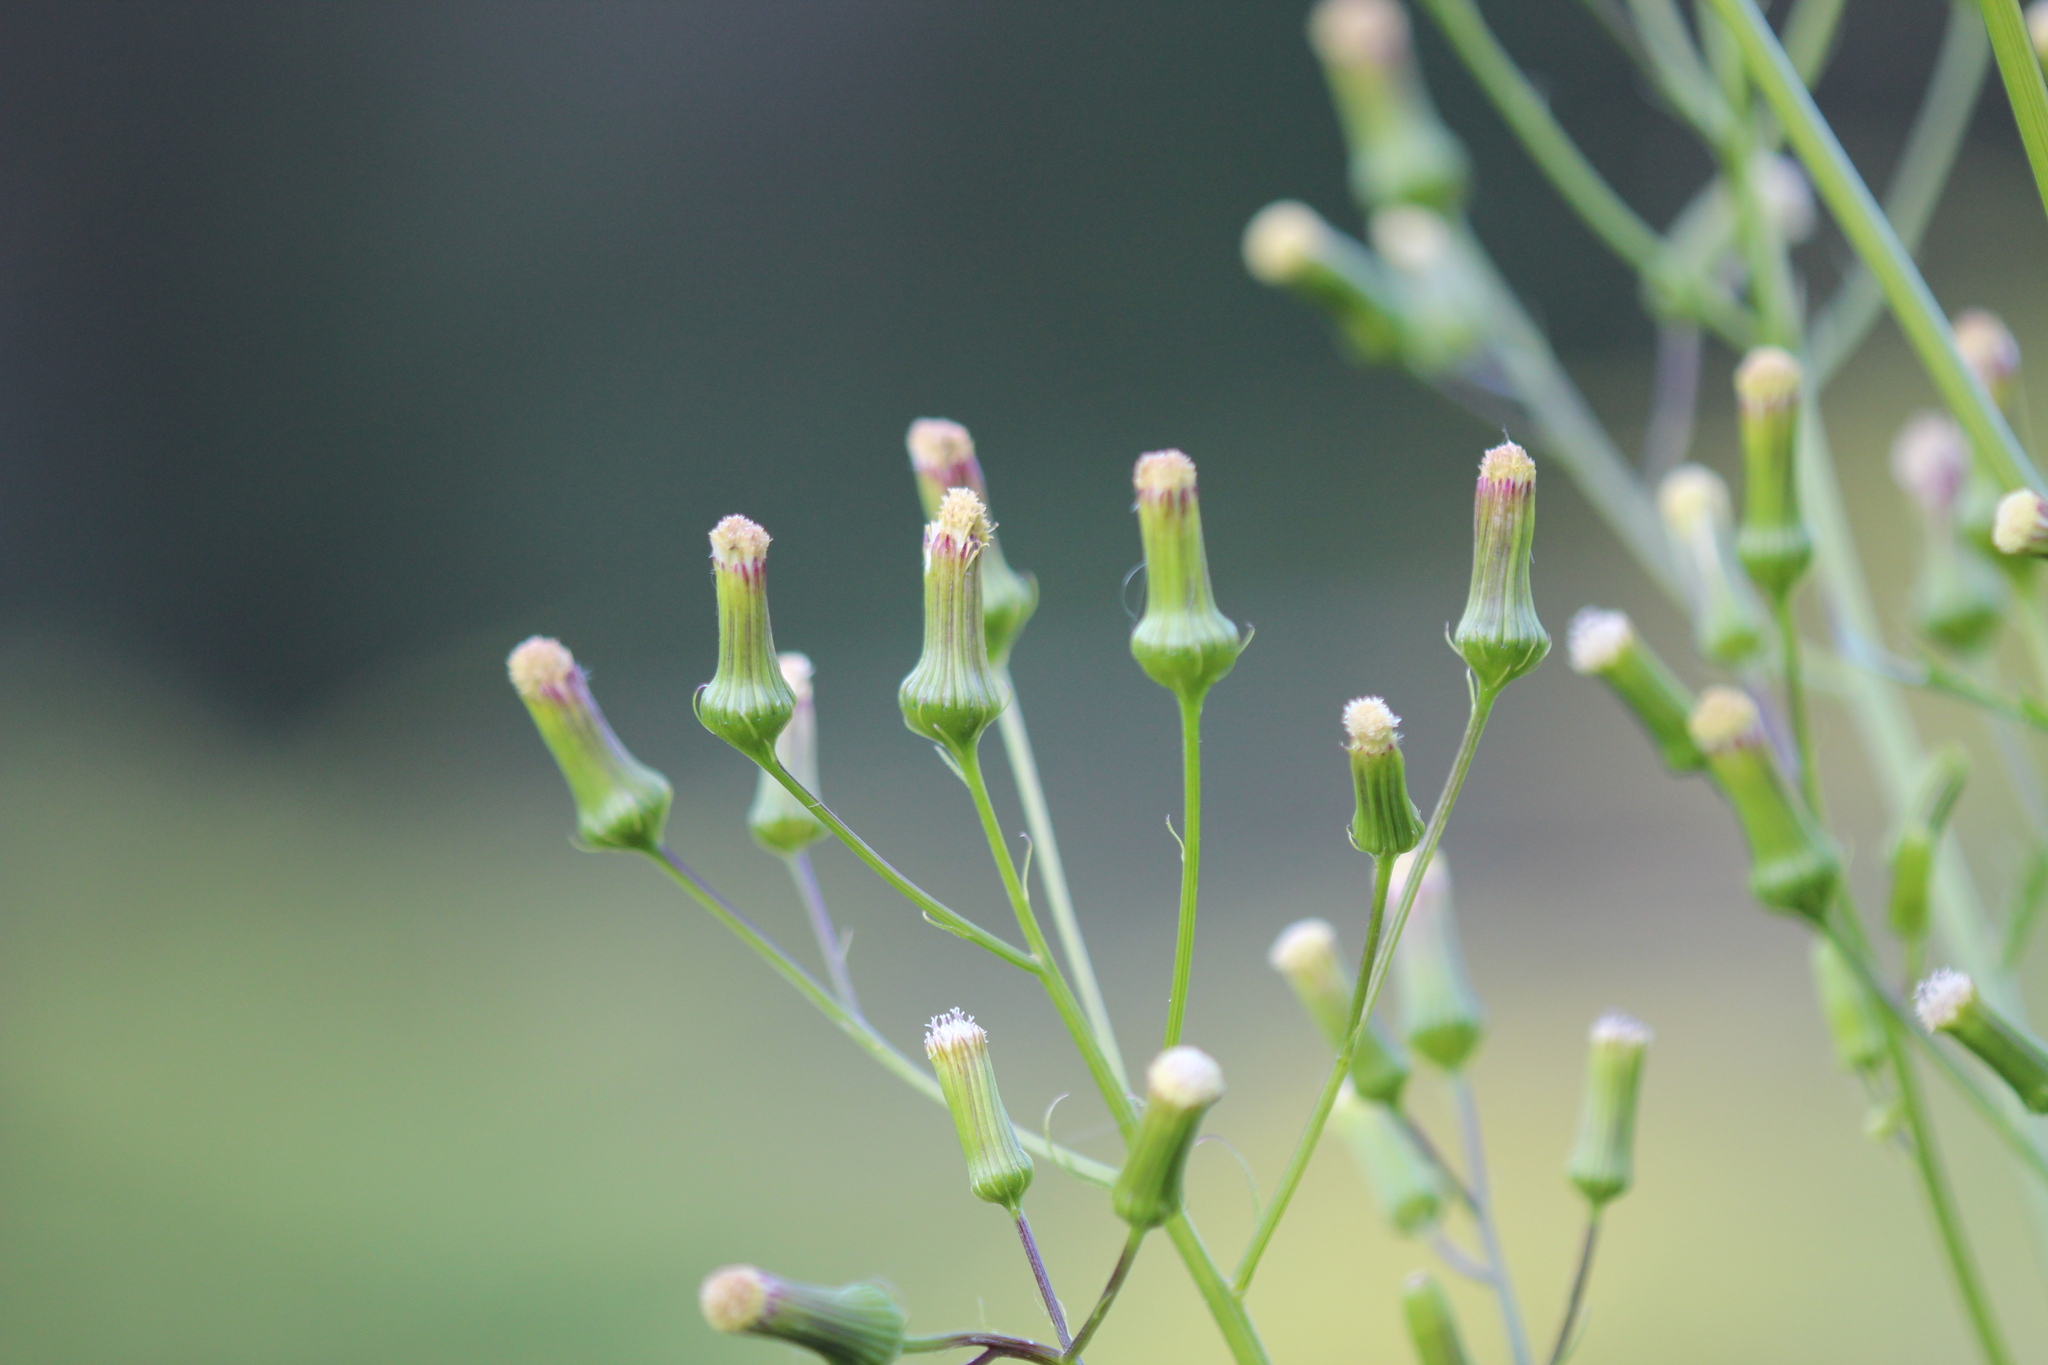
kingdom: Plantae
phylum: Tracheophyta
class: Magnoliopsida
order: Asterales
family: Asteraceae
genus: Erechtites
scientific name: Erechtites hieraciifolius
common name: American burnweed
